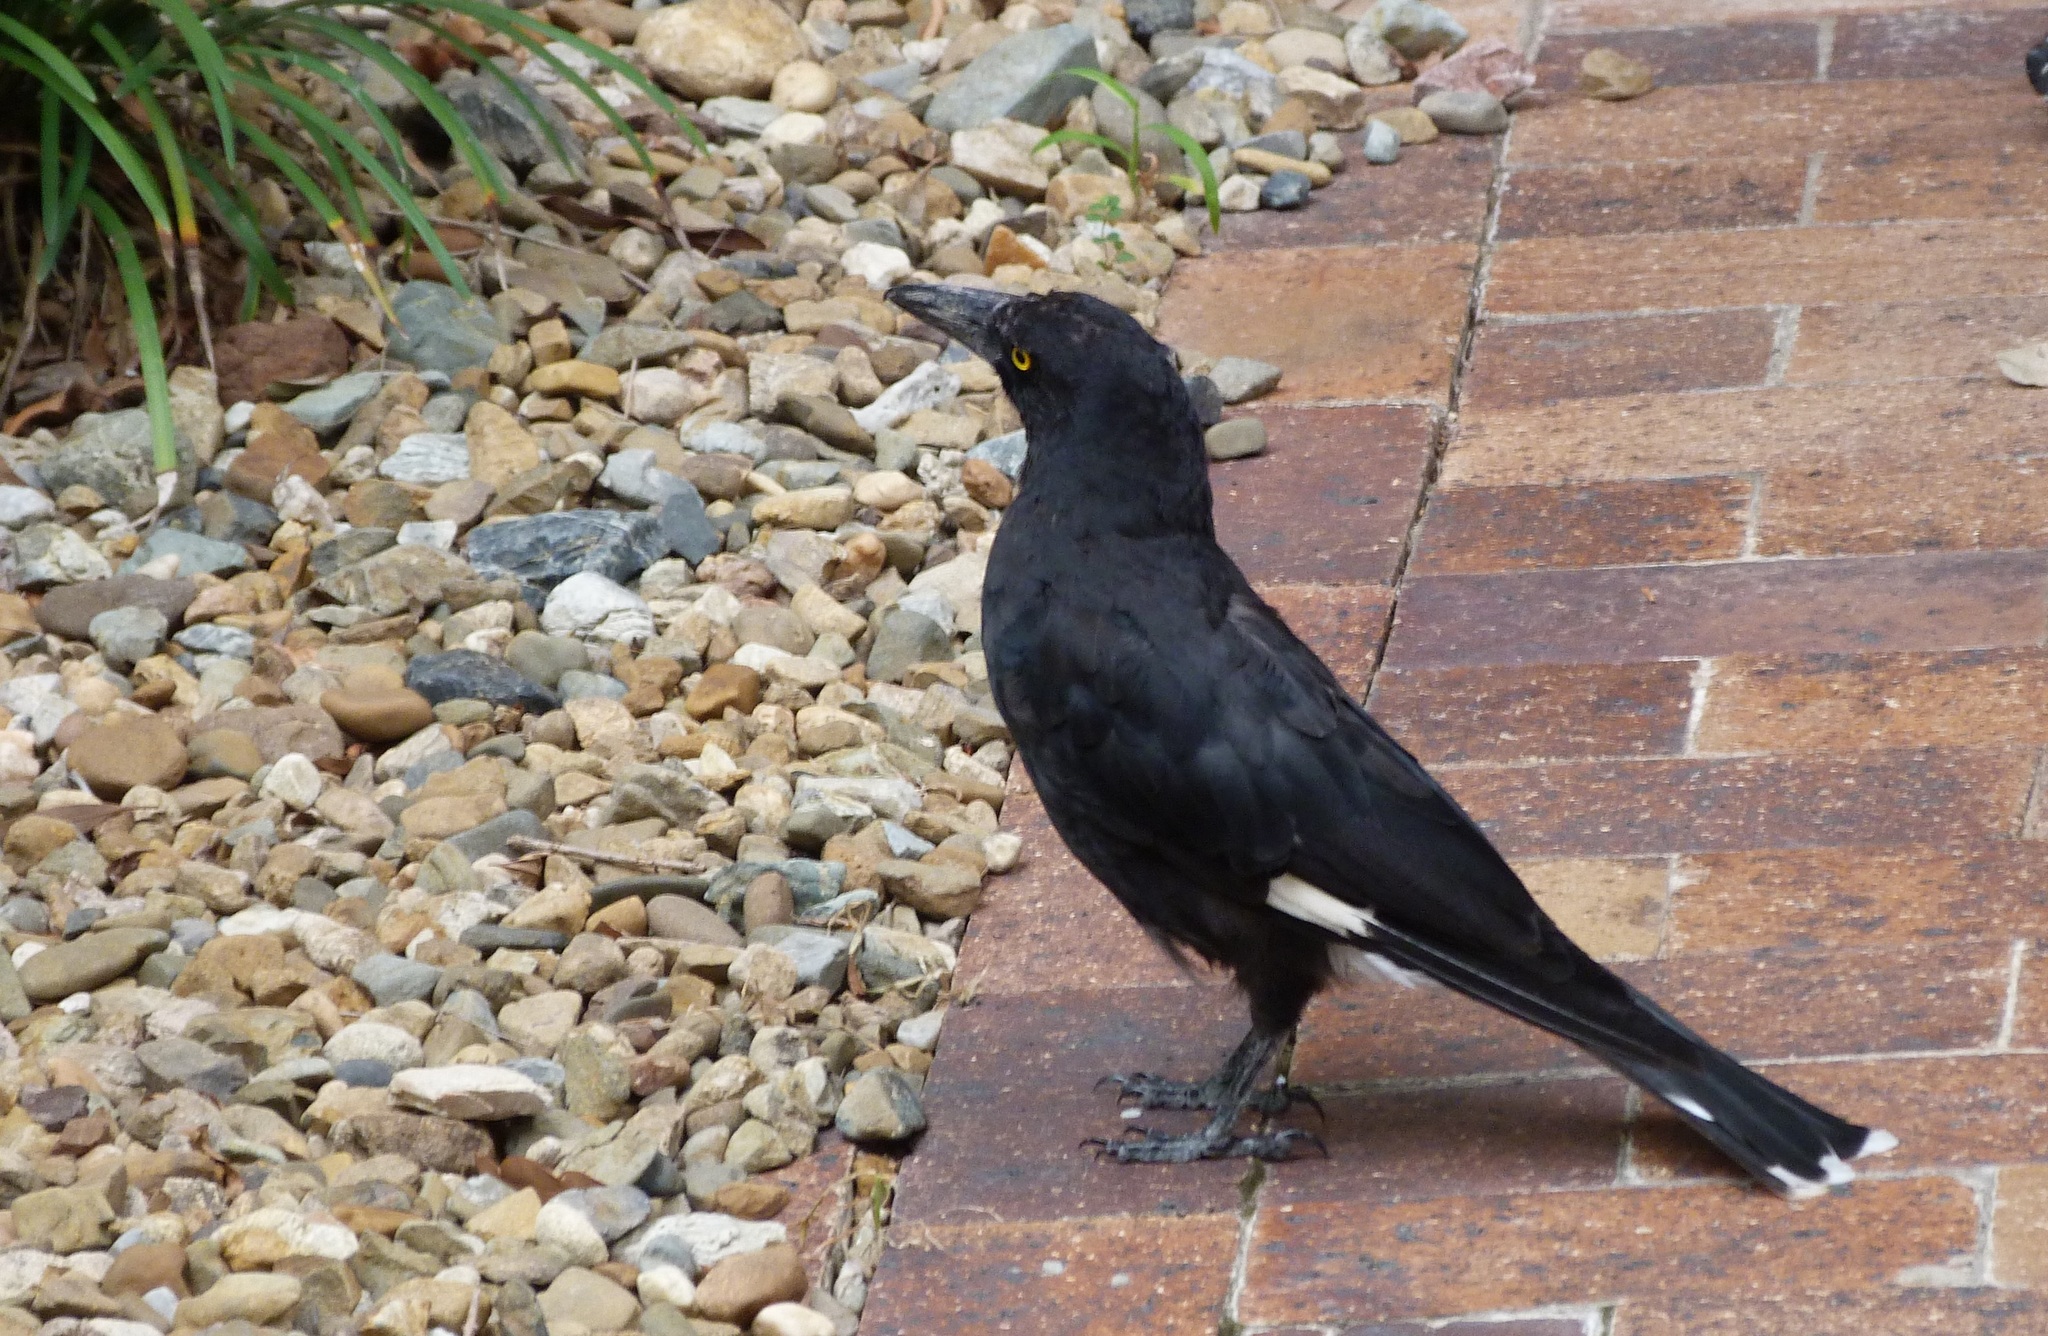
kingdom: Animalia
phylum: Chordata
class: Aves
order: Passeriformes
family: Cracticidae
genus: Strepera
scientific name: Strepera graculina
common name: Pied currawong
